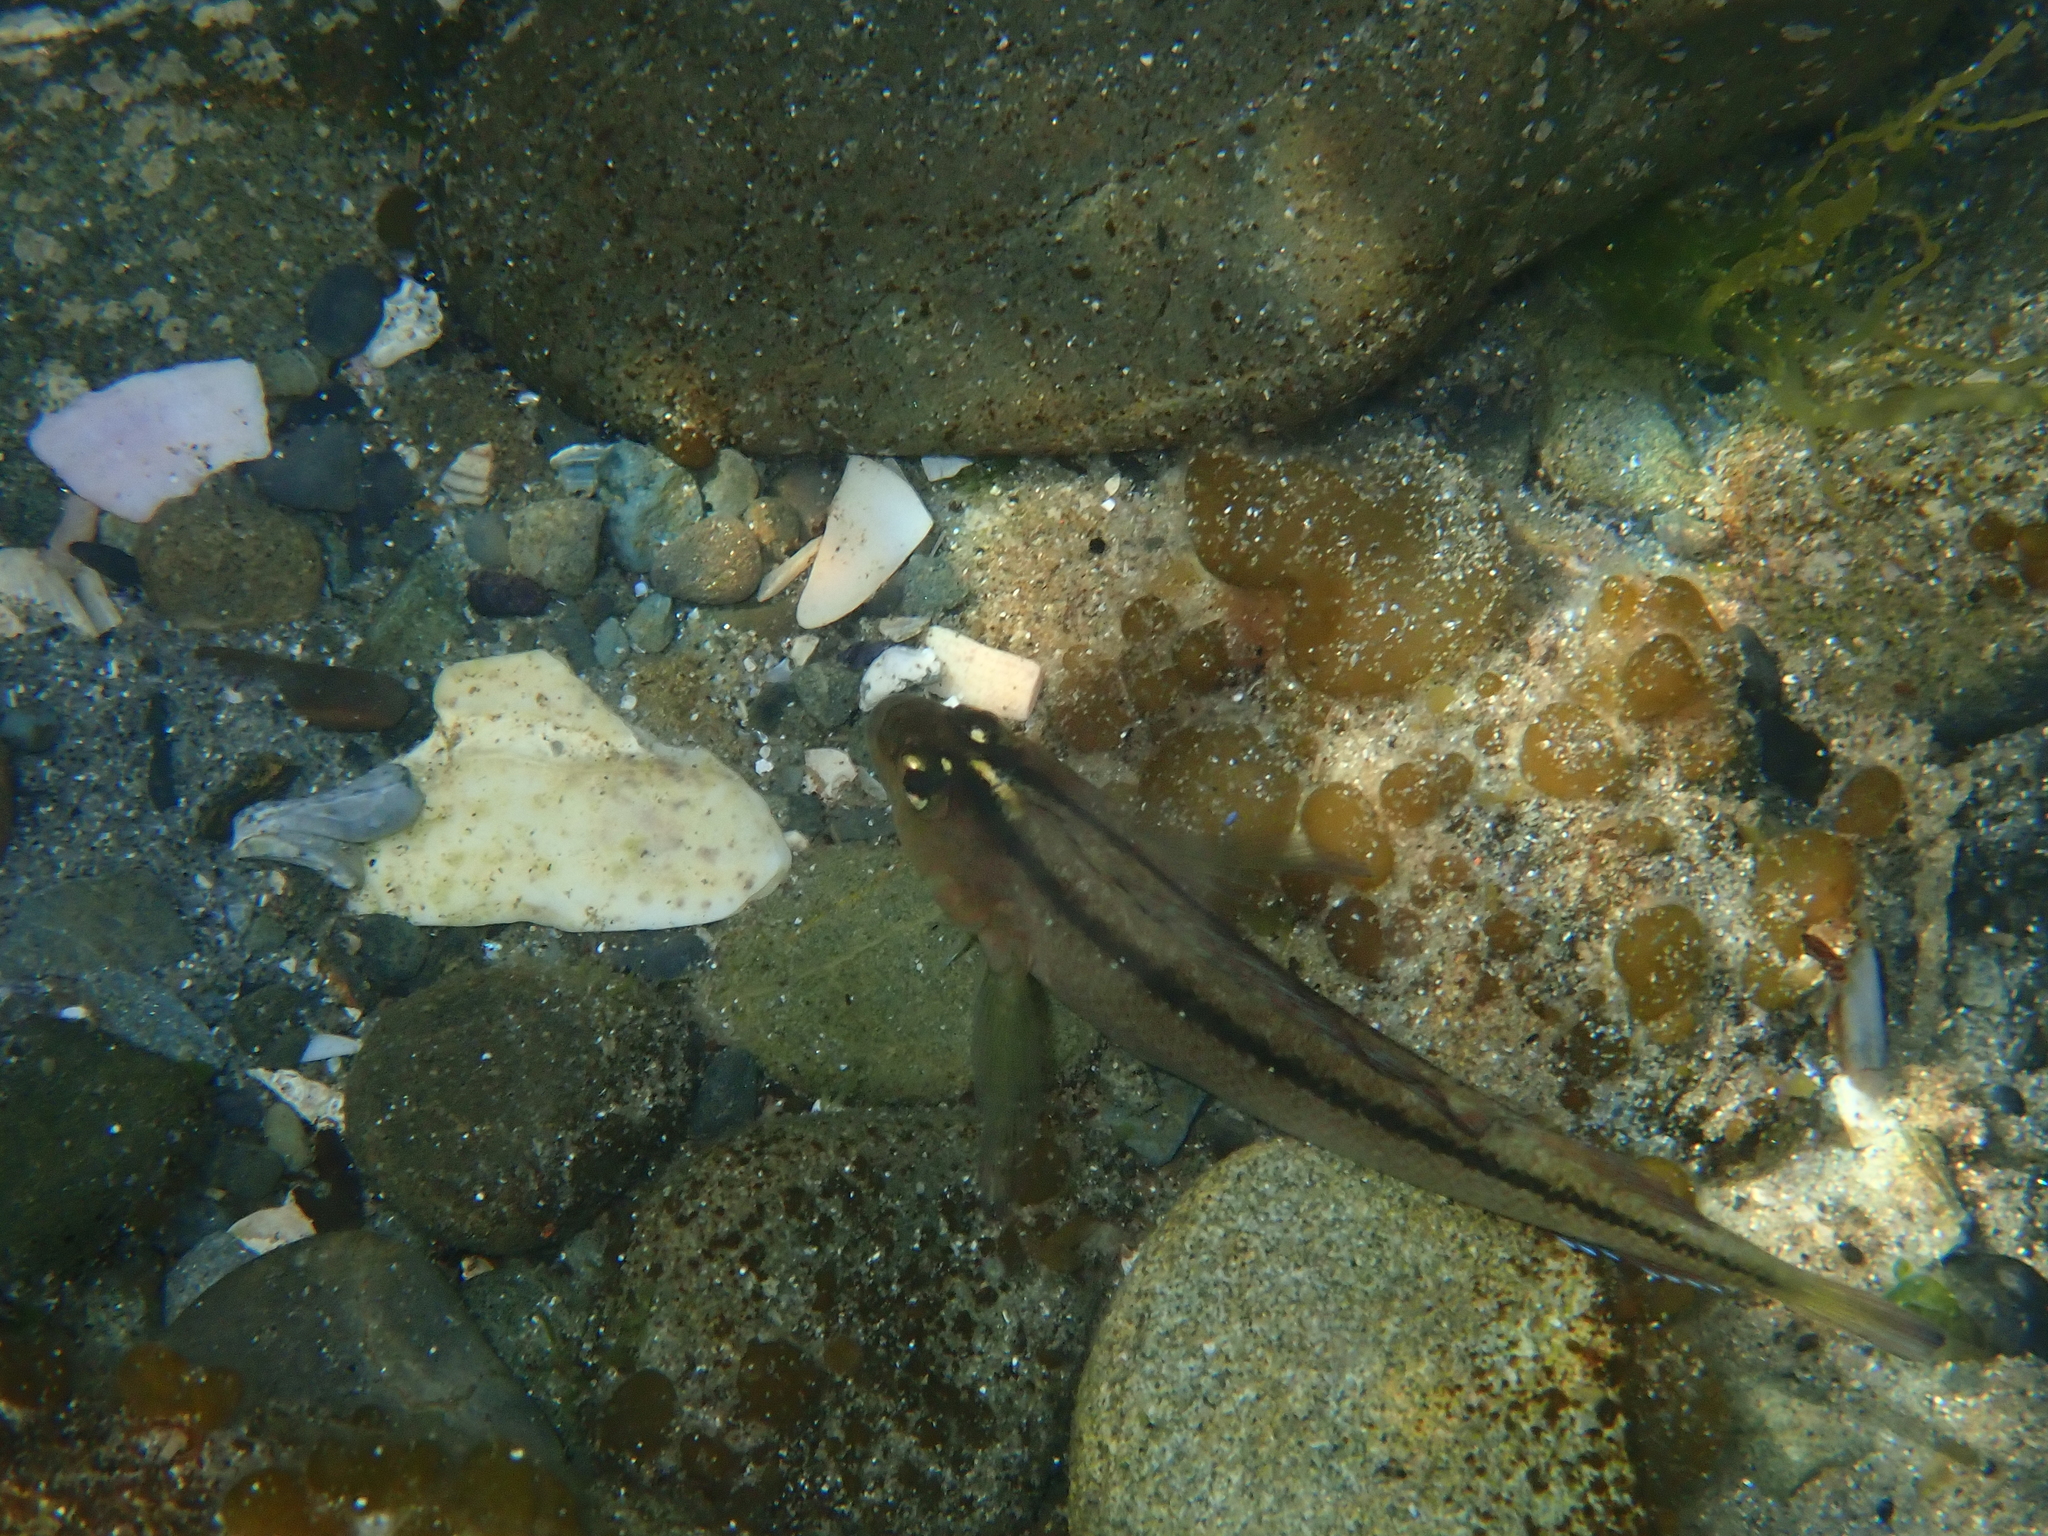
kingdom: Animalia
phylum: Chordata
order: Perciformes
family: Tripterygiidae
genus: Forsterygion
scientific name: Forsterygion lapillum
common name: Common triplefin
